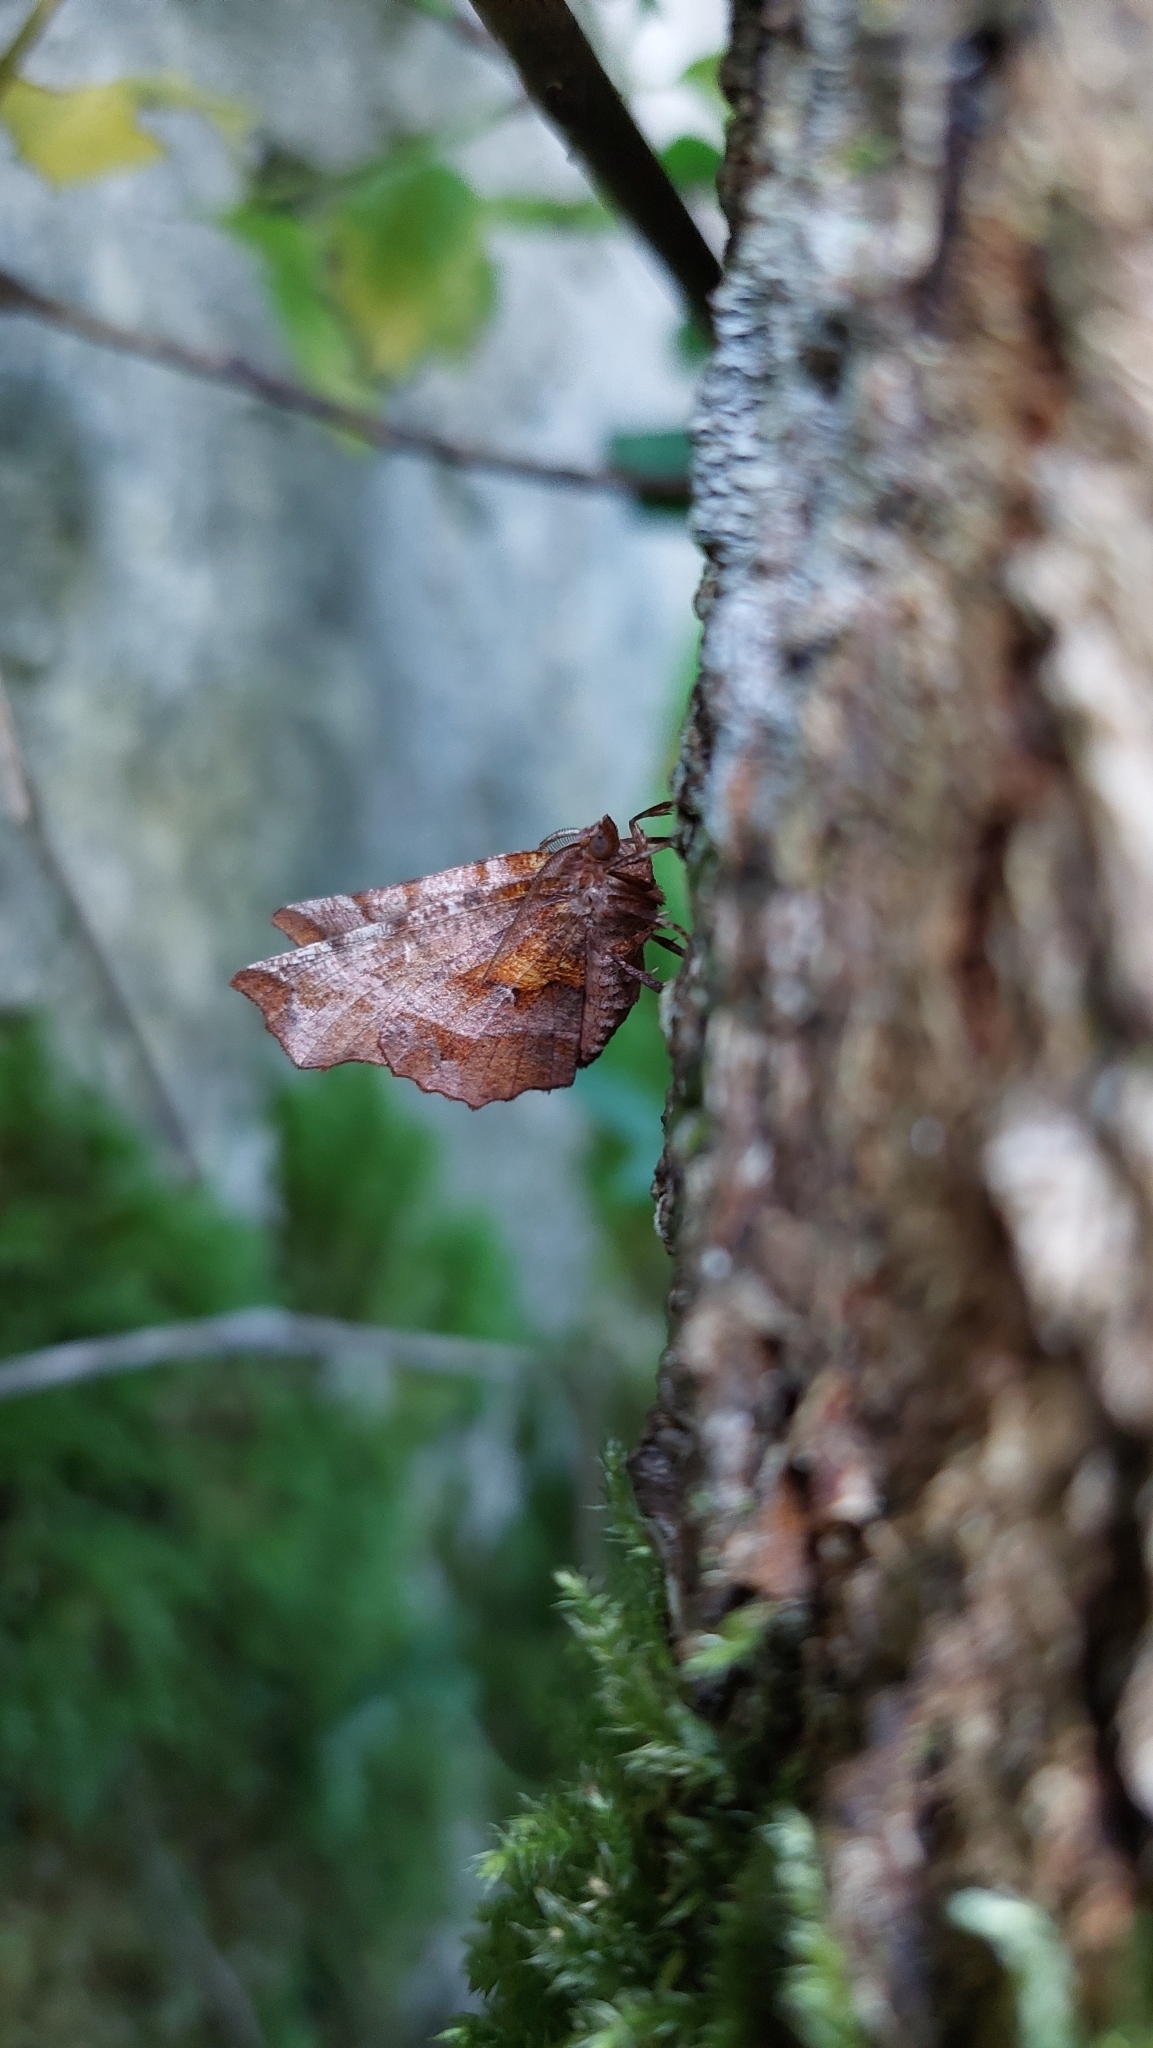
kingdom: Animalia
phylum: Arthropoda
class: Insecta
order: Lepidoptera
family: Geometridae
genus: Selenia
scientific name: Selenia dentaria
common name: Early thorn
